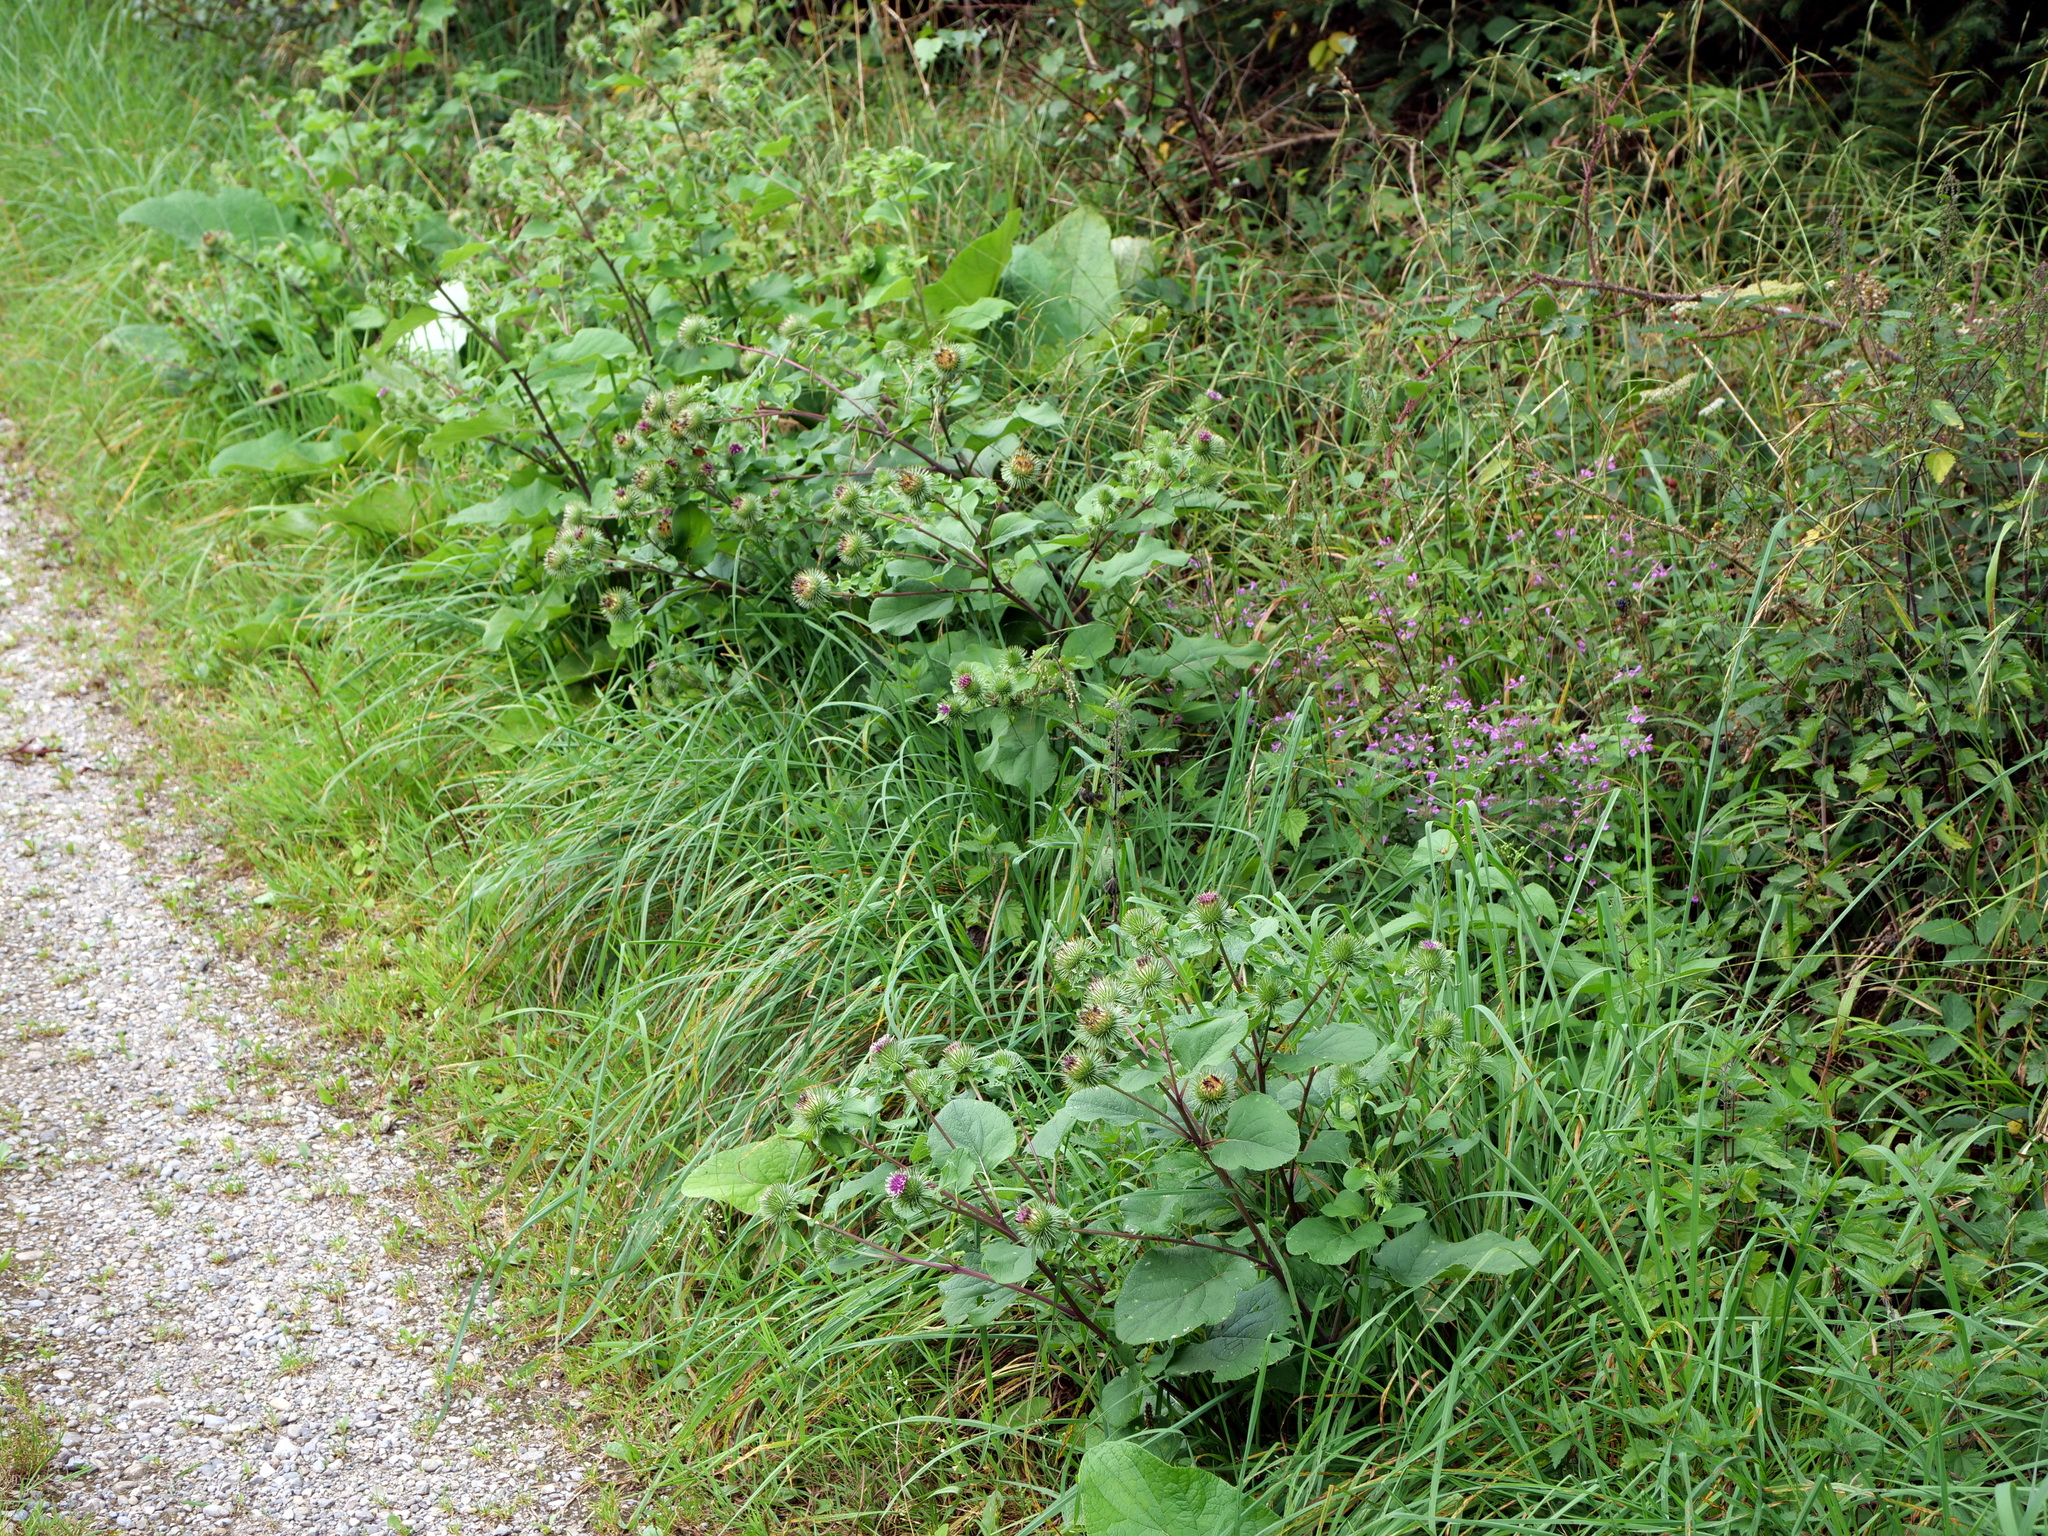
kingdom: Plantae
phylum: Tracheophyta
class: Magnoliopsida
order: Asterales
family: Asteraceae
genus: Arctium
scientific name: Arctium lappa
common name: Greater burdock
